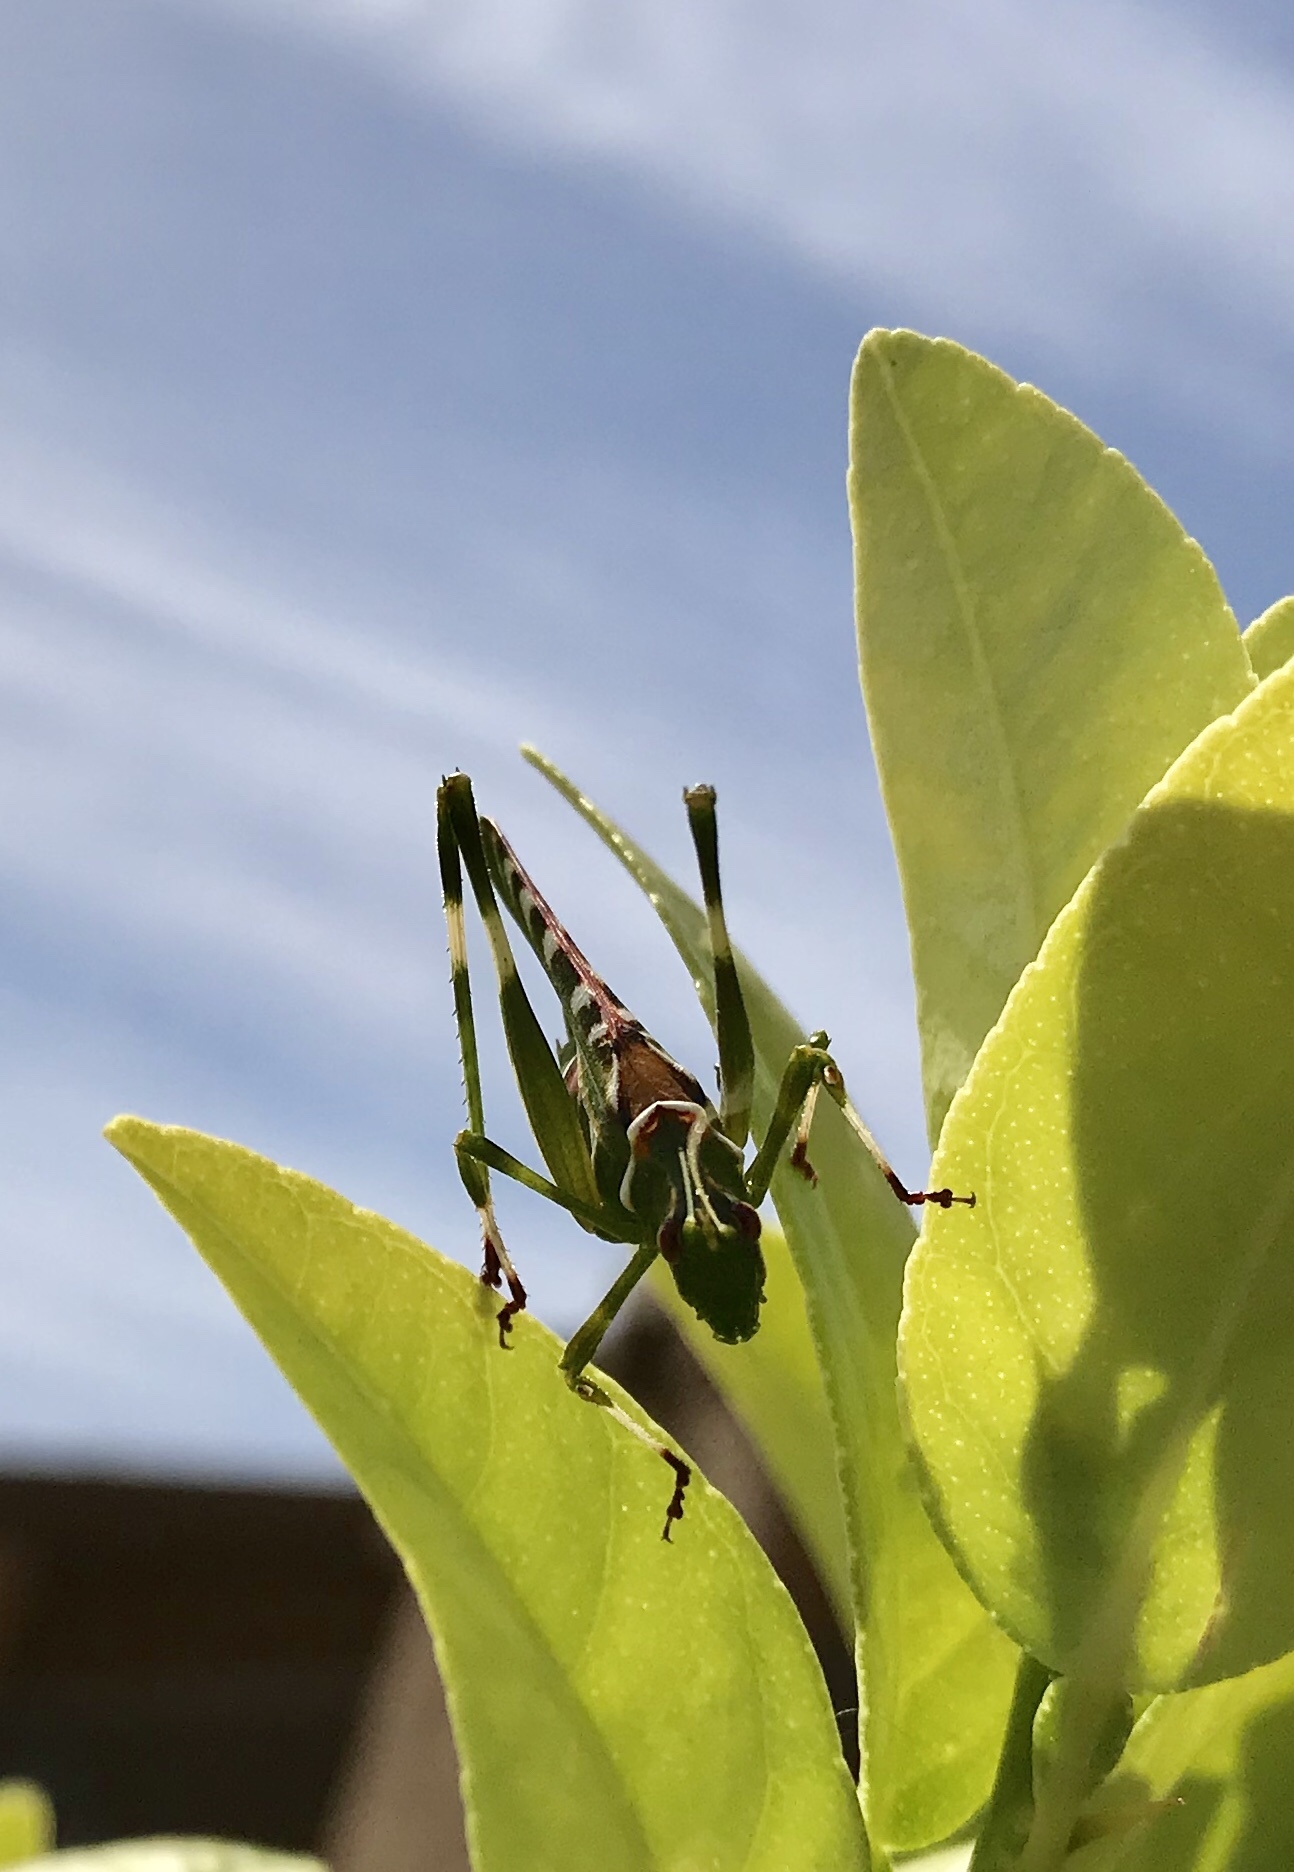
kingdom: Animalia
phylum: Arthropoda
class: Insecta
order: Orthoptera
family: Tettigoniidae
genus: Insara
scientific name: Insara covilleae
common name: Creosote bush katydid
